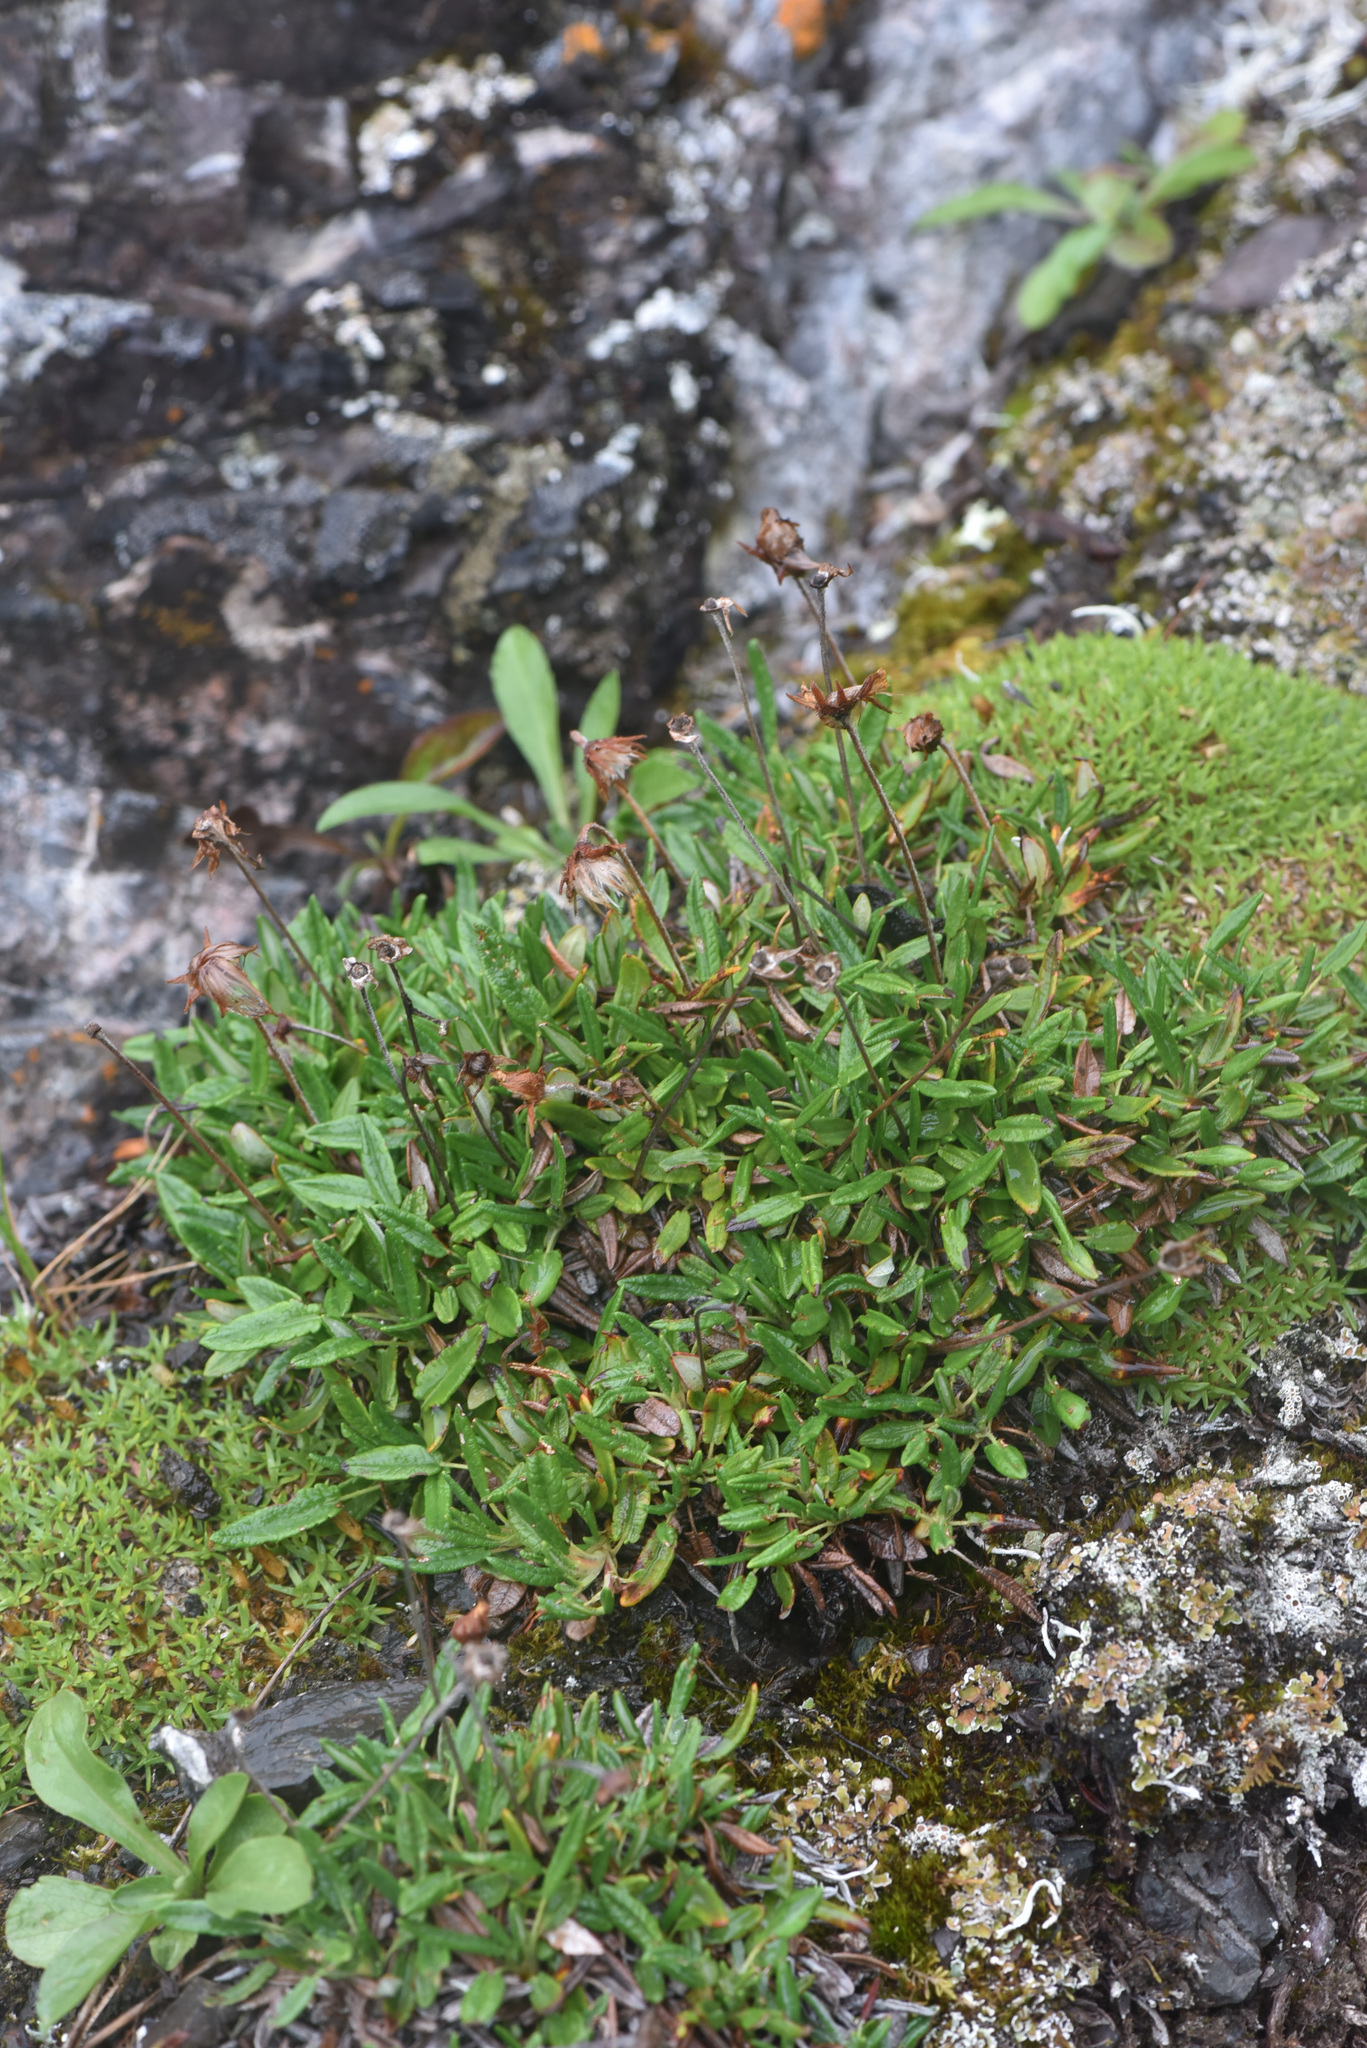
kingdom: Plantae
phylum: Tracheophyta
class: Magnoliopsida
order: Rosales
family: Rosaceae
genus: Dryas
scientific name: Dryas integrifolia
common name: Entire-leaved mountain avens
